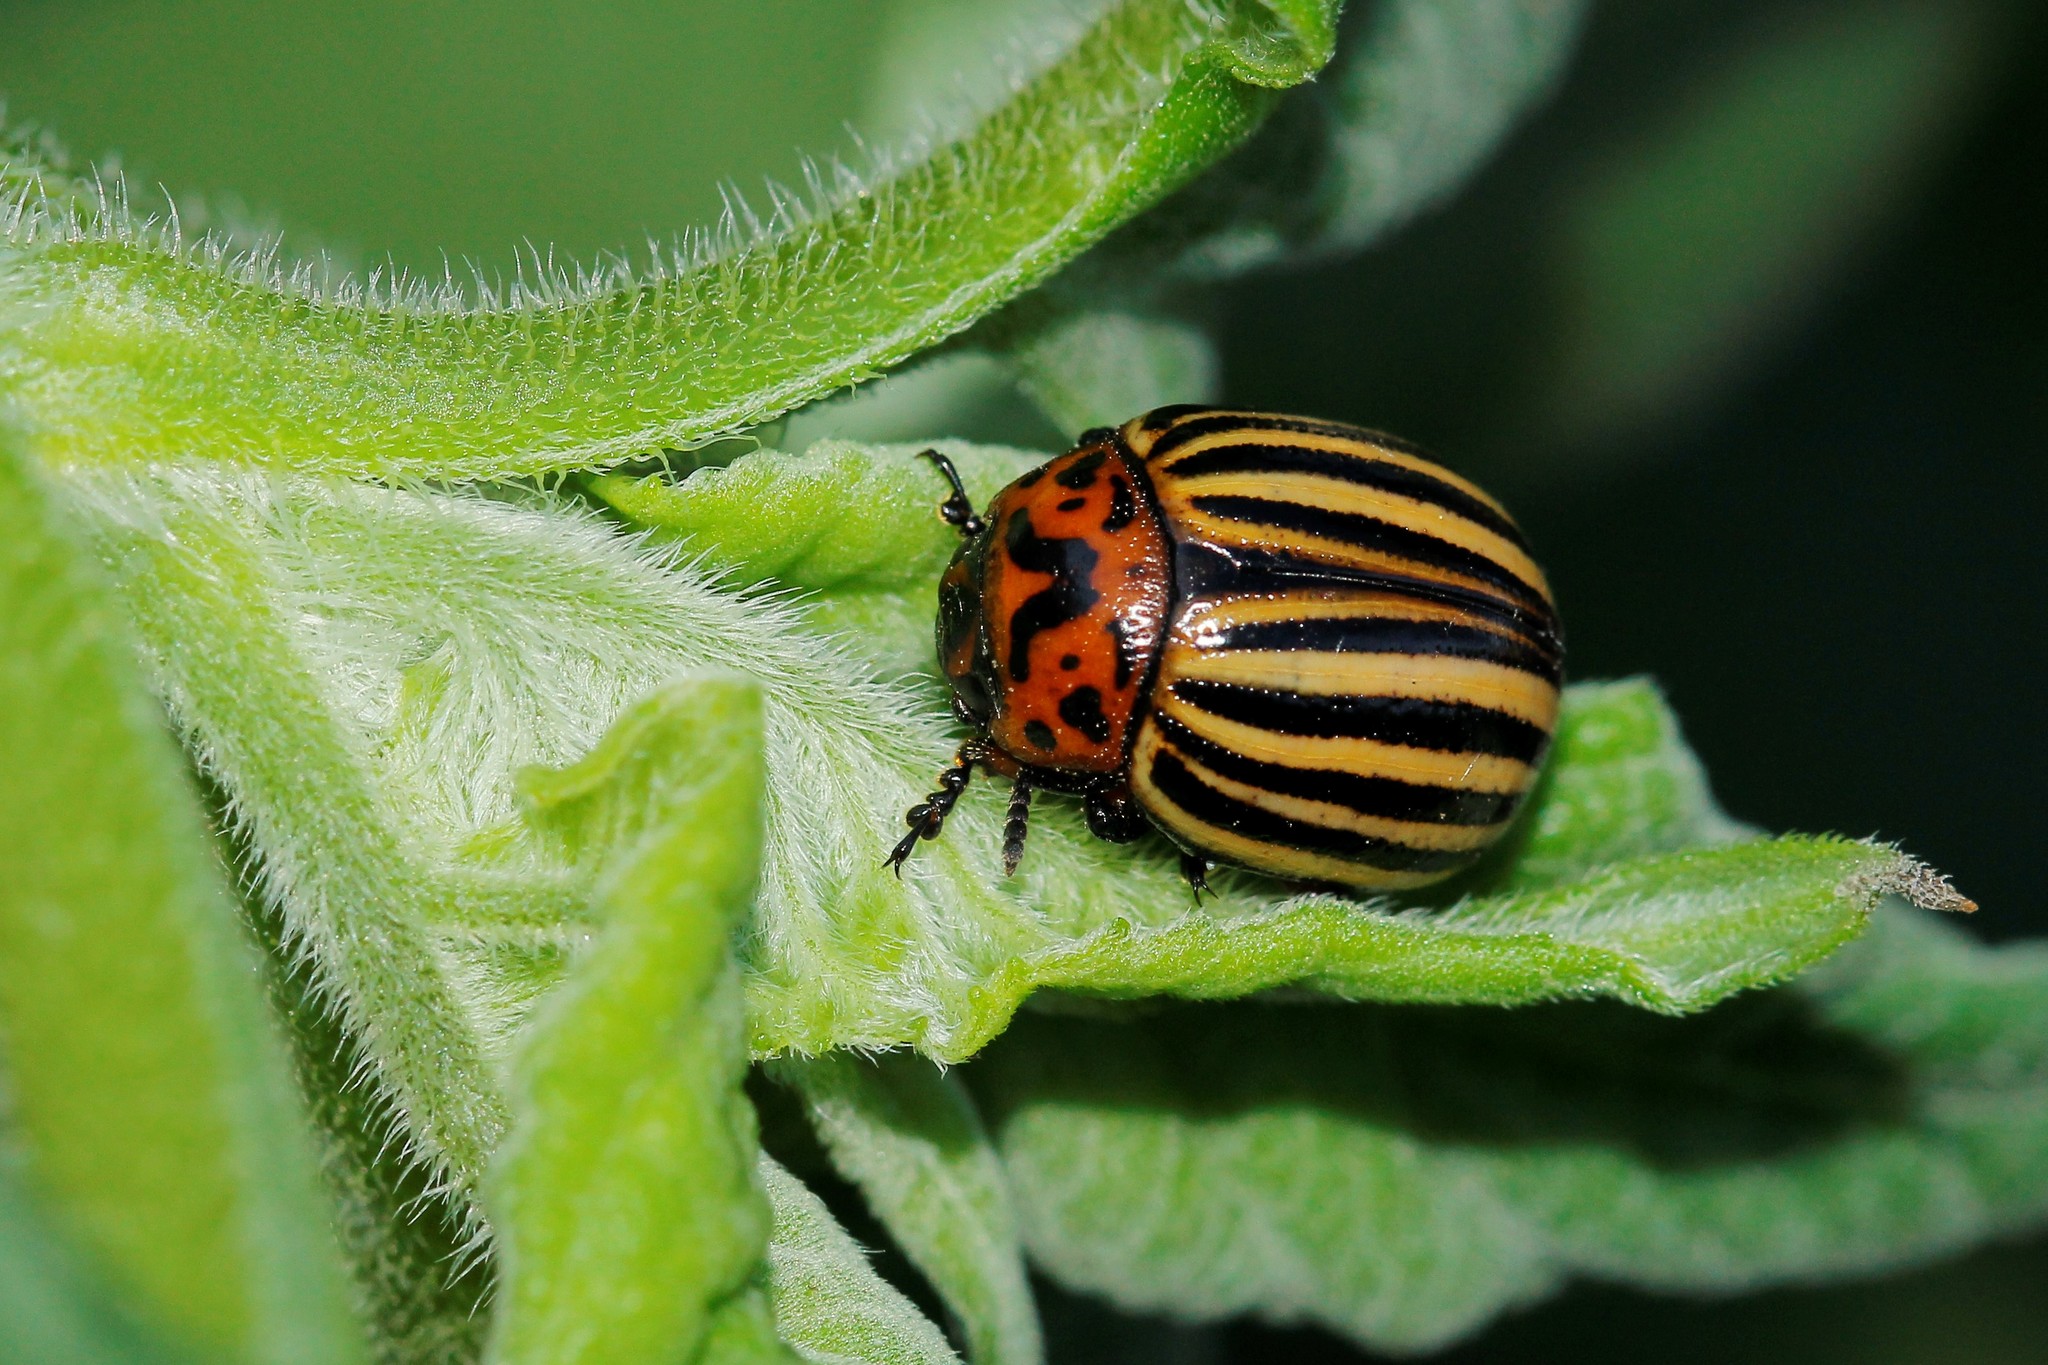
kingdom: Animalia
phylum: Arthropoda
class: Insecta
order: Coleoptera
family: Chrysomelidae
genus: Leptinotarsa
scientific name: Leptinotarsa decemlineata
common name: Colorado potato beetle
